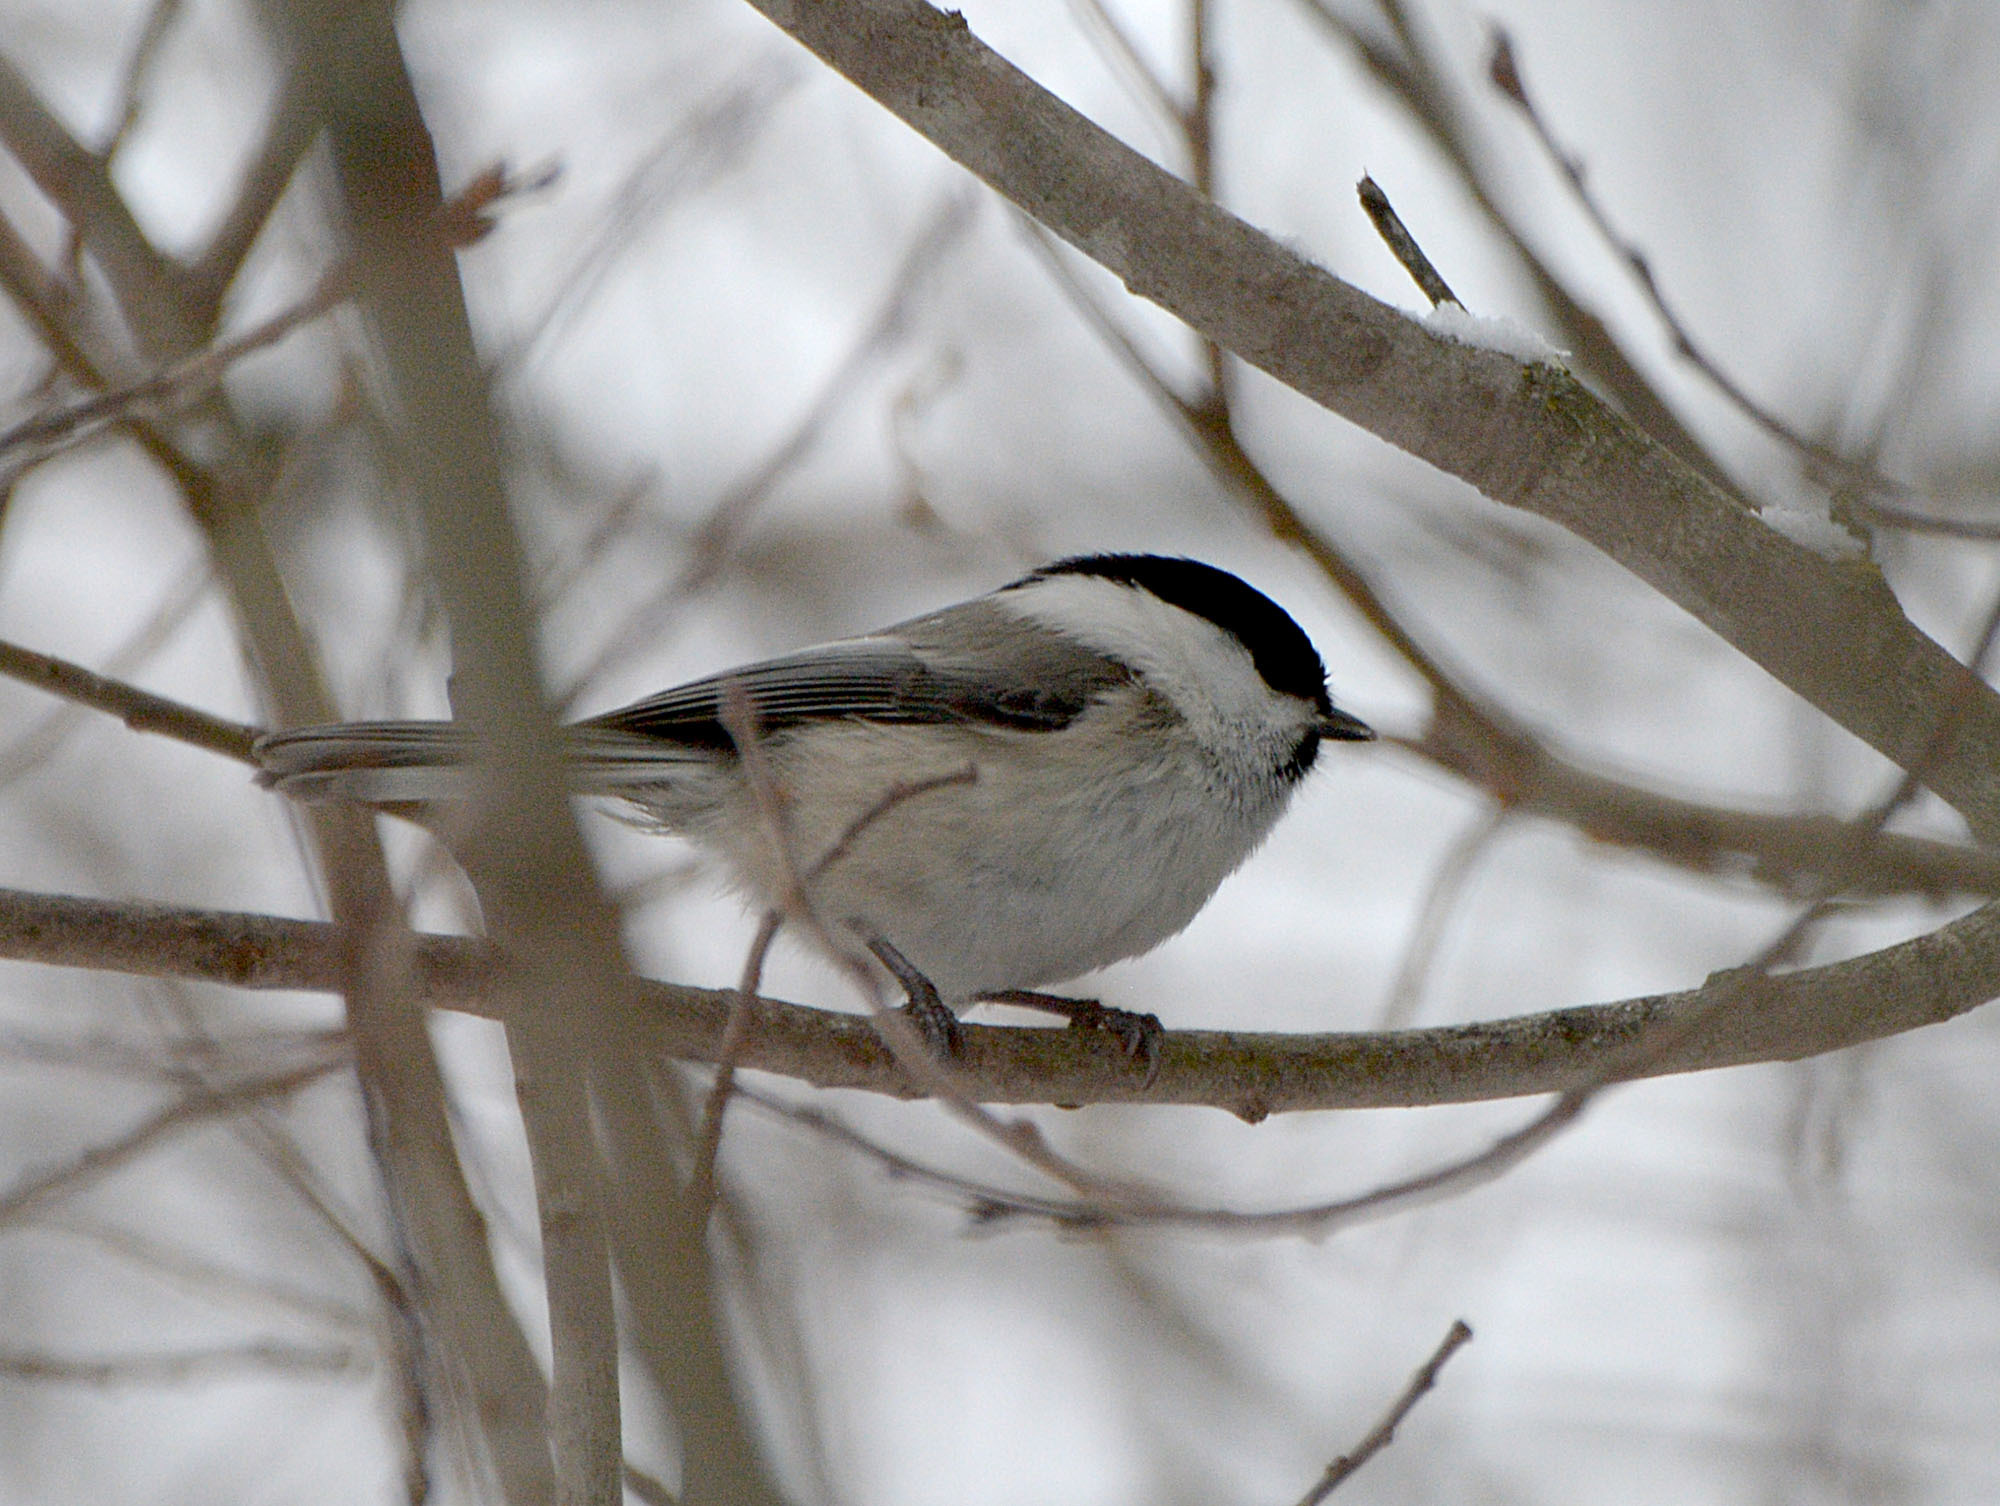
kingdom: Animalia
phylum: Chordata
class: Aves
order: Passeriformes
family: Paridae
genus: Poecile
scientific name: Poecile montanus
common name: Willow tit
